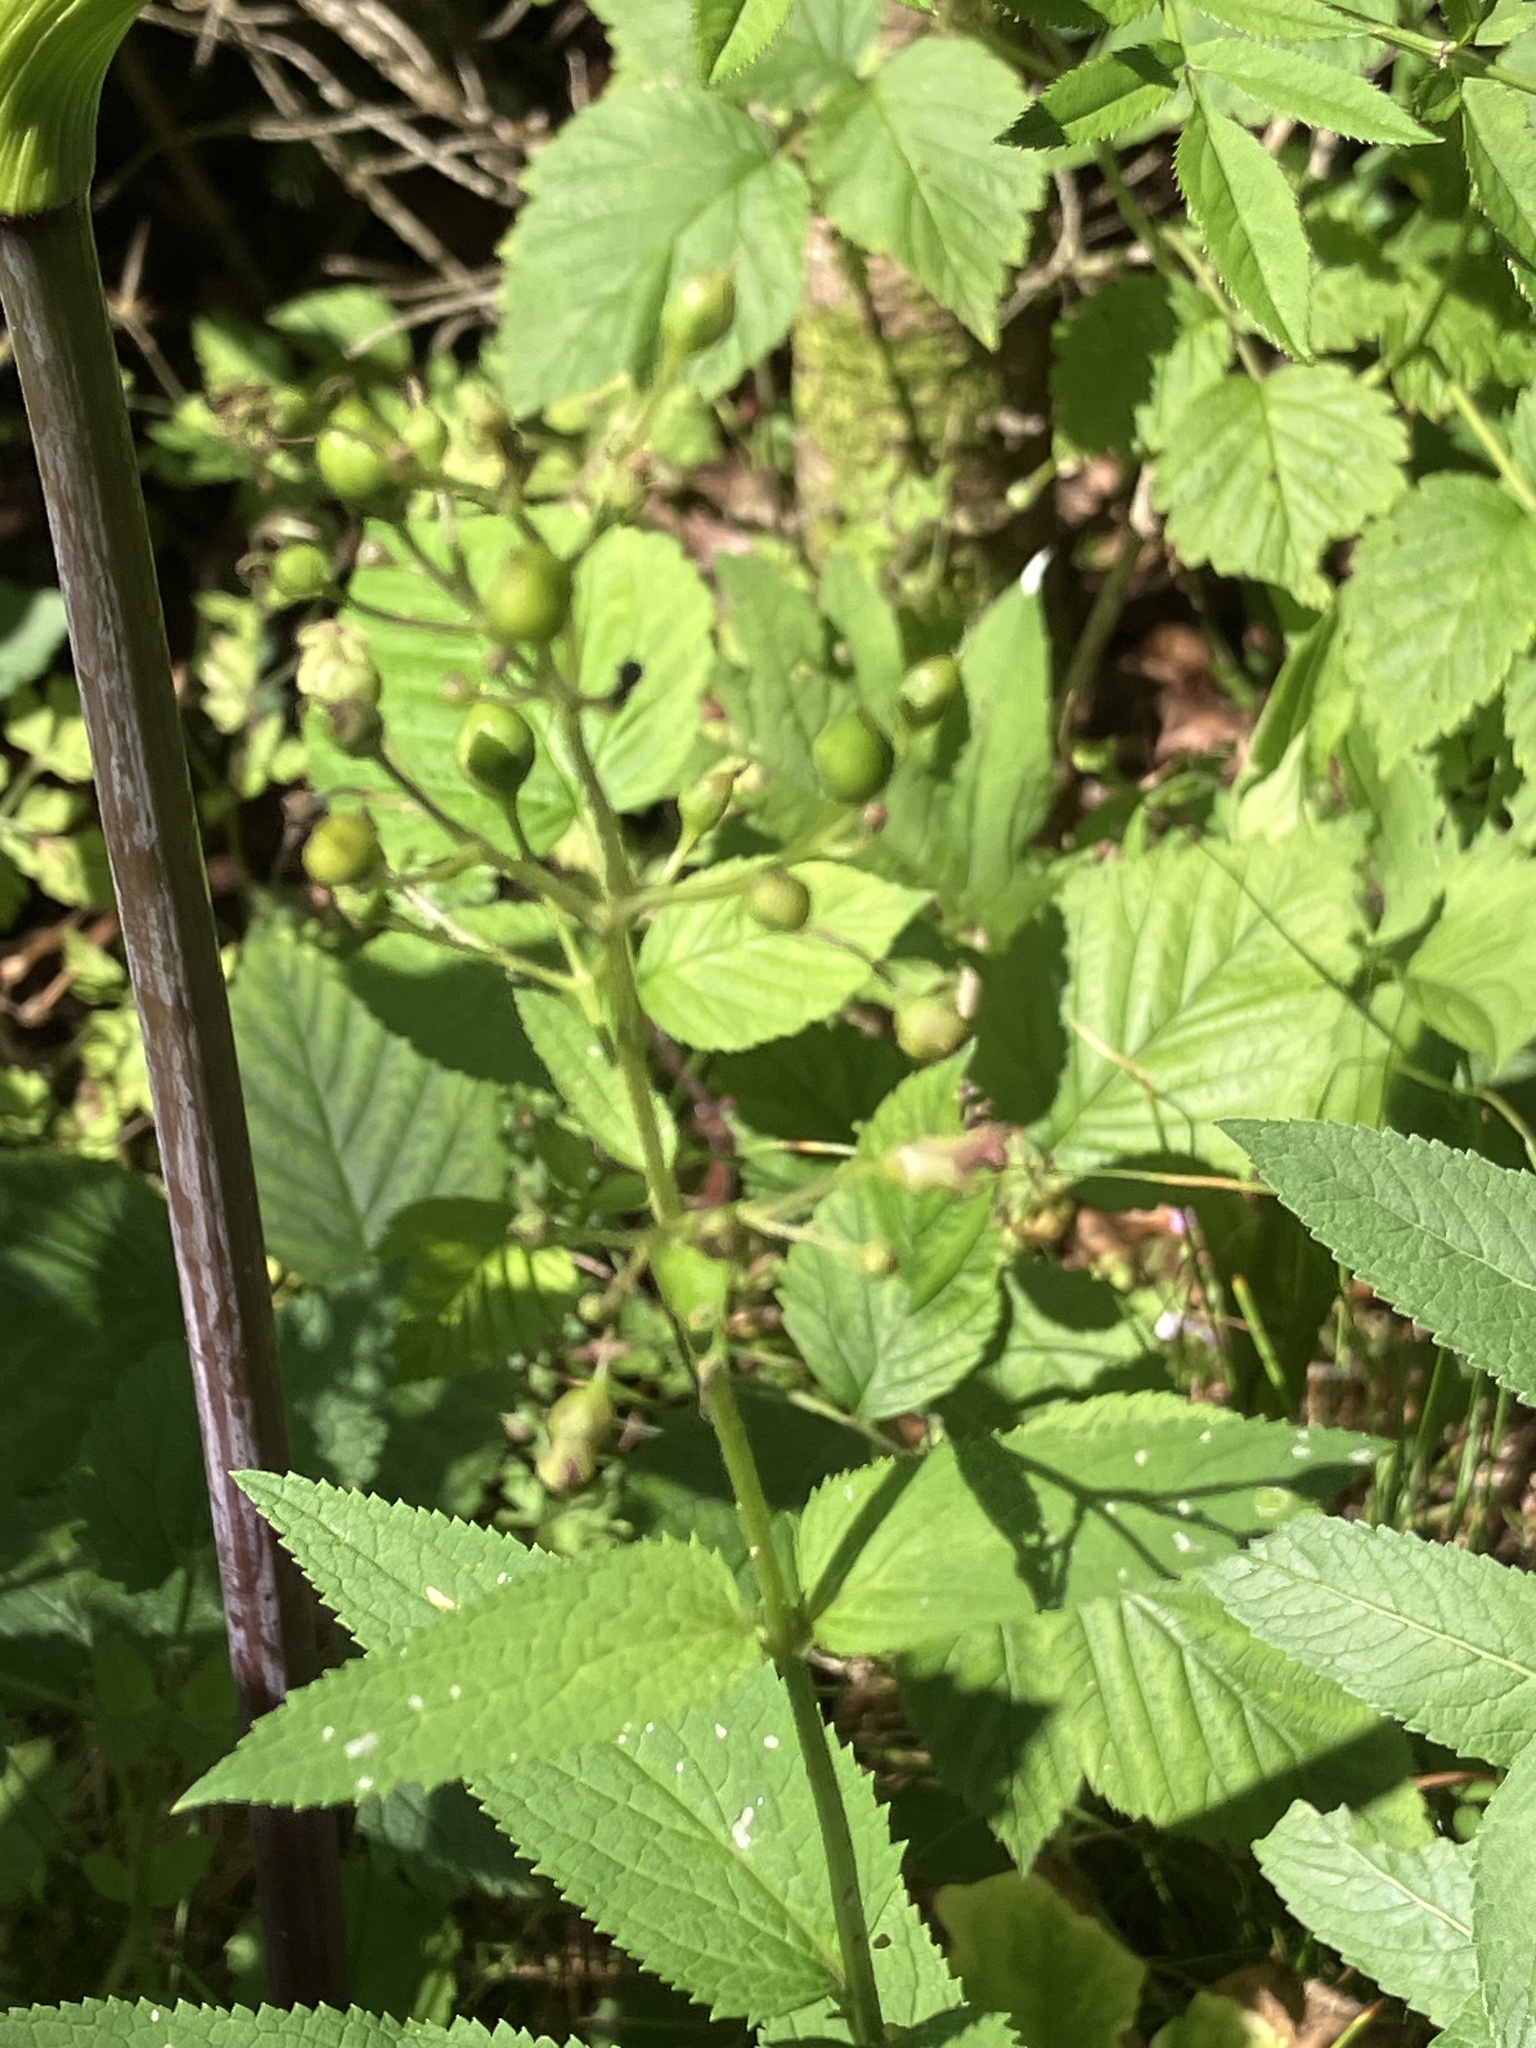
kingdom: Plantae
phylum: Tracheophyta
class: Magnoliopsida
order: Lamiales
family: Scrophulariaceae
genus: Scrophularia
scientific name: Scrophularia nodosa
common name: Common figwort
